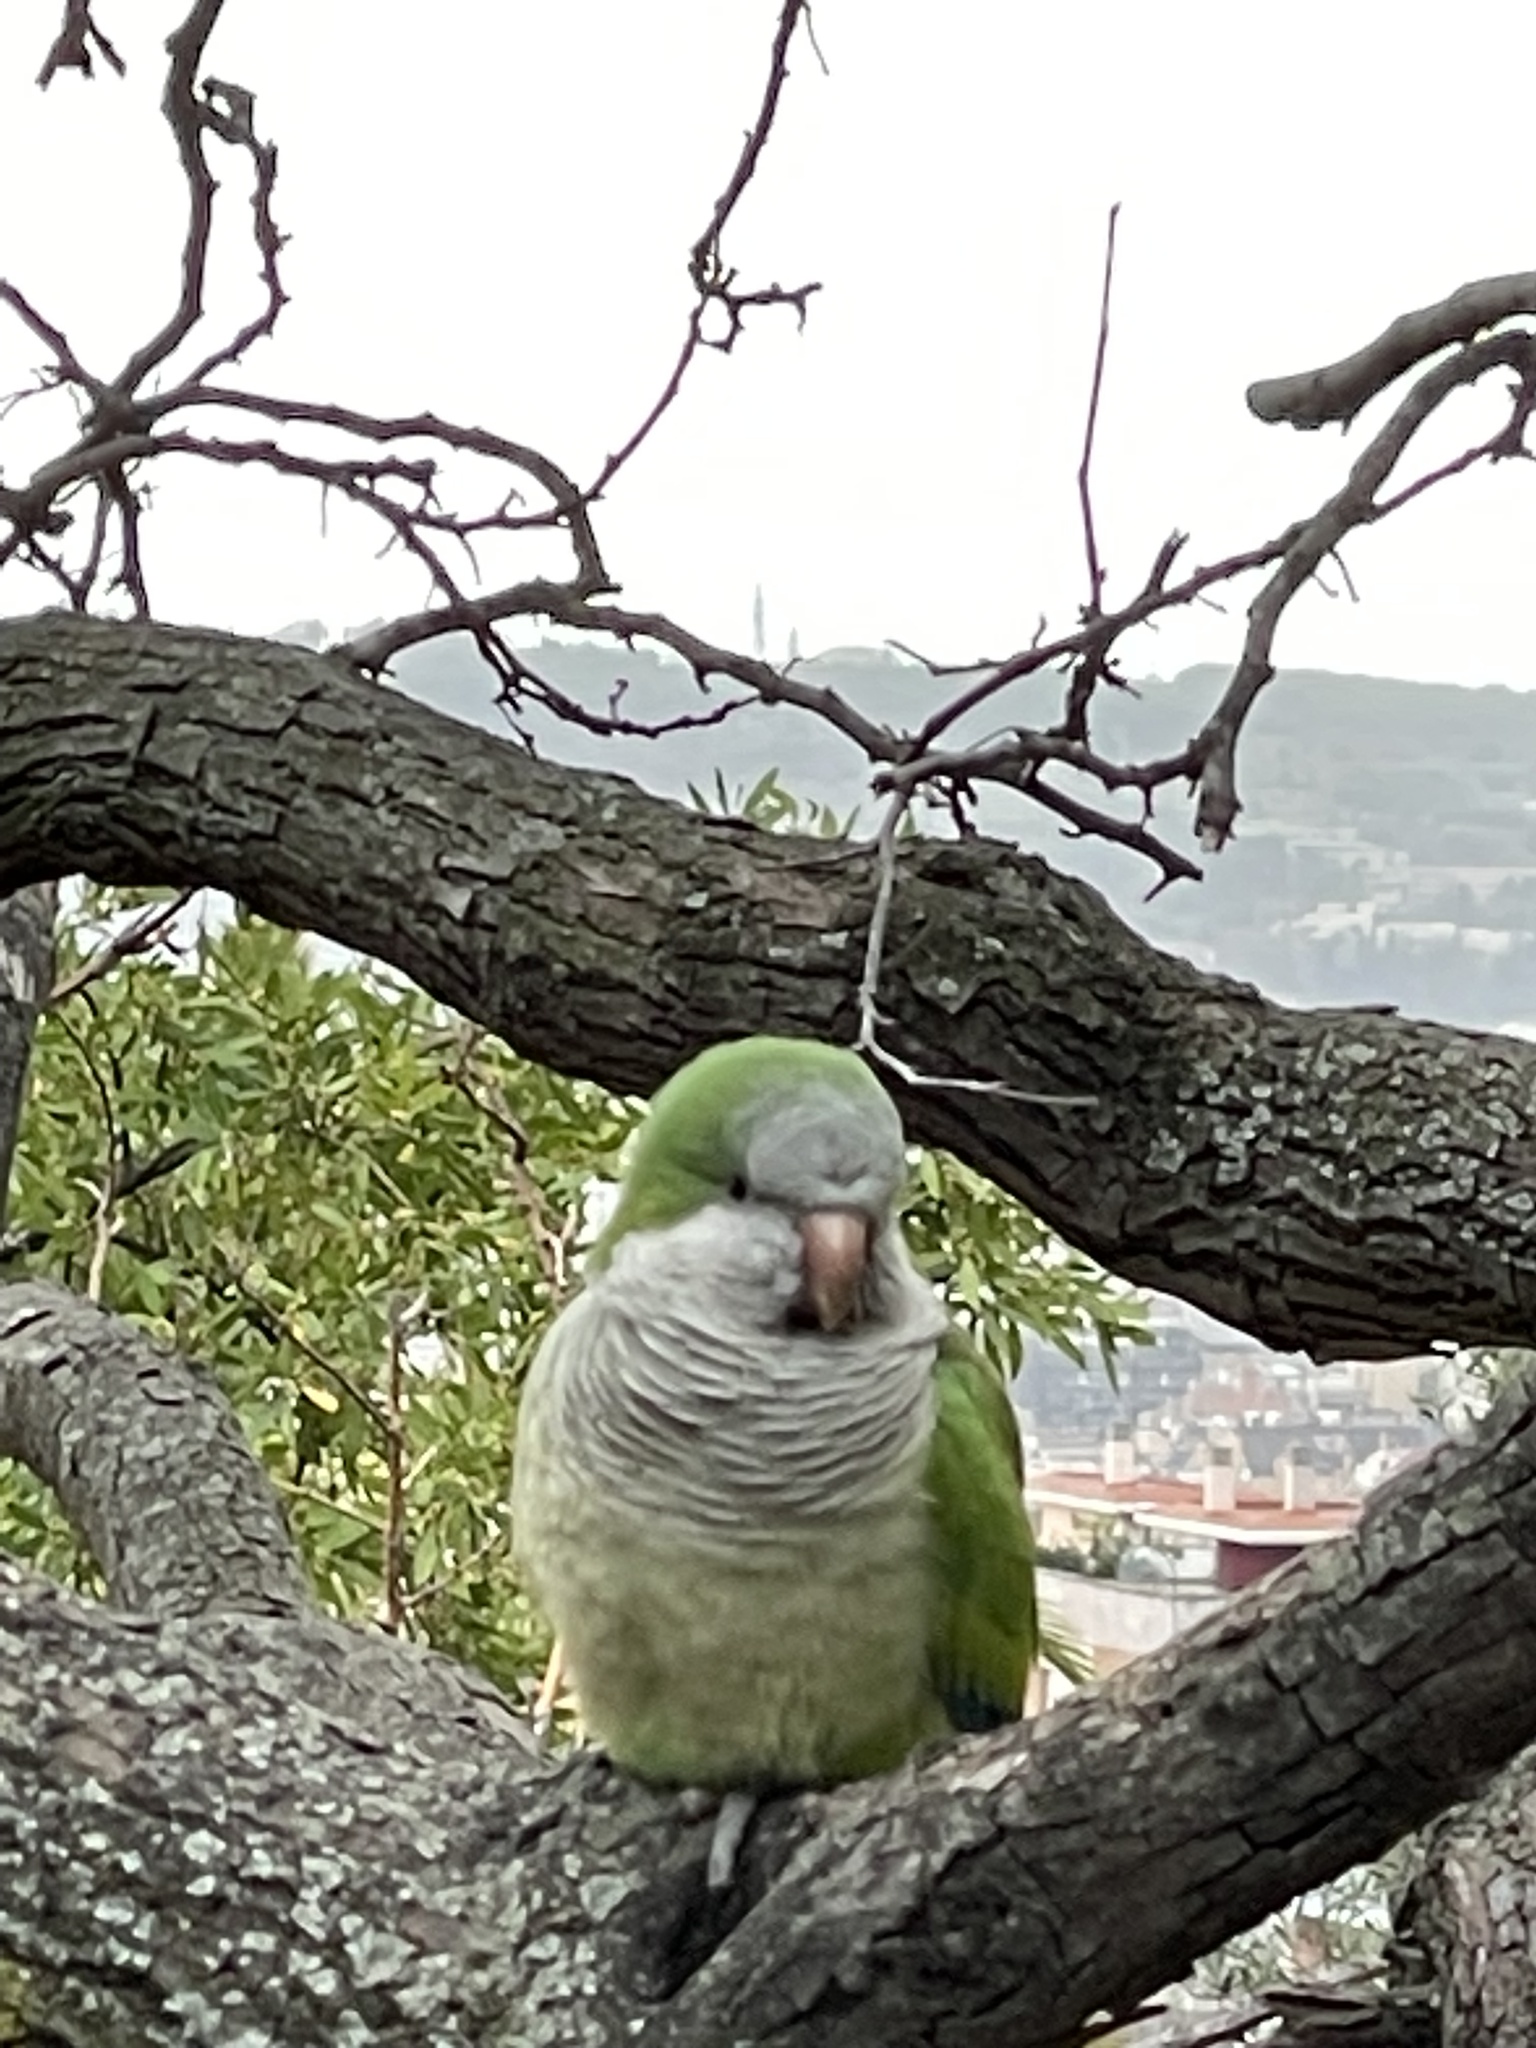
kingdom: Animalia
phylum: Chordata
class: Aves
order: Psittaciformes
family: Psittacidae
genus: Myiopsitta
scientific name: Myiopsitta monachus
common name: Monk parakeet
